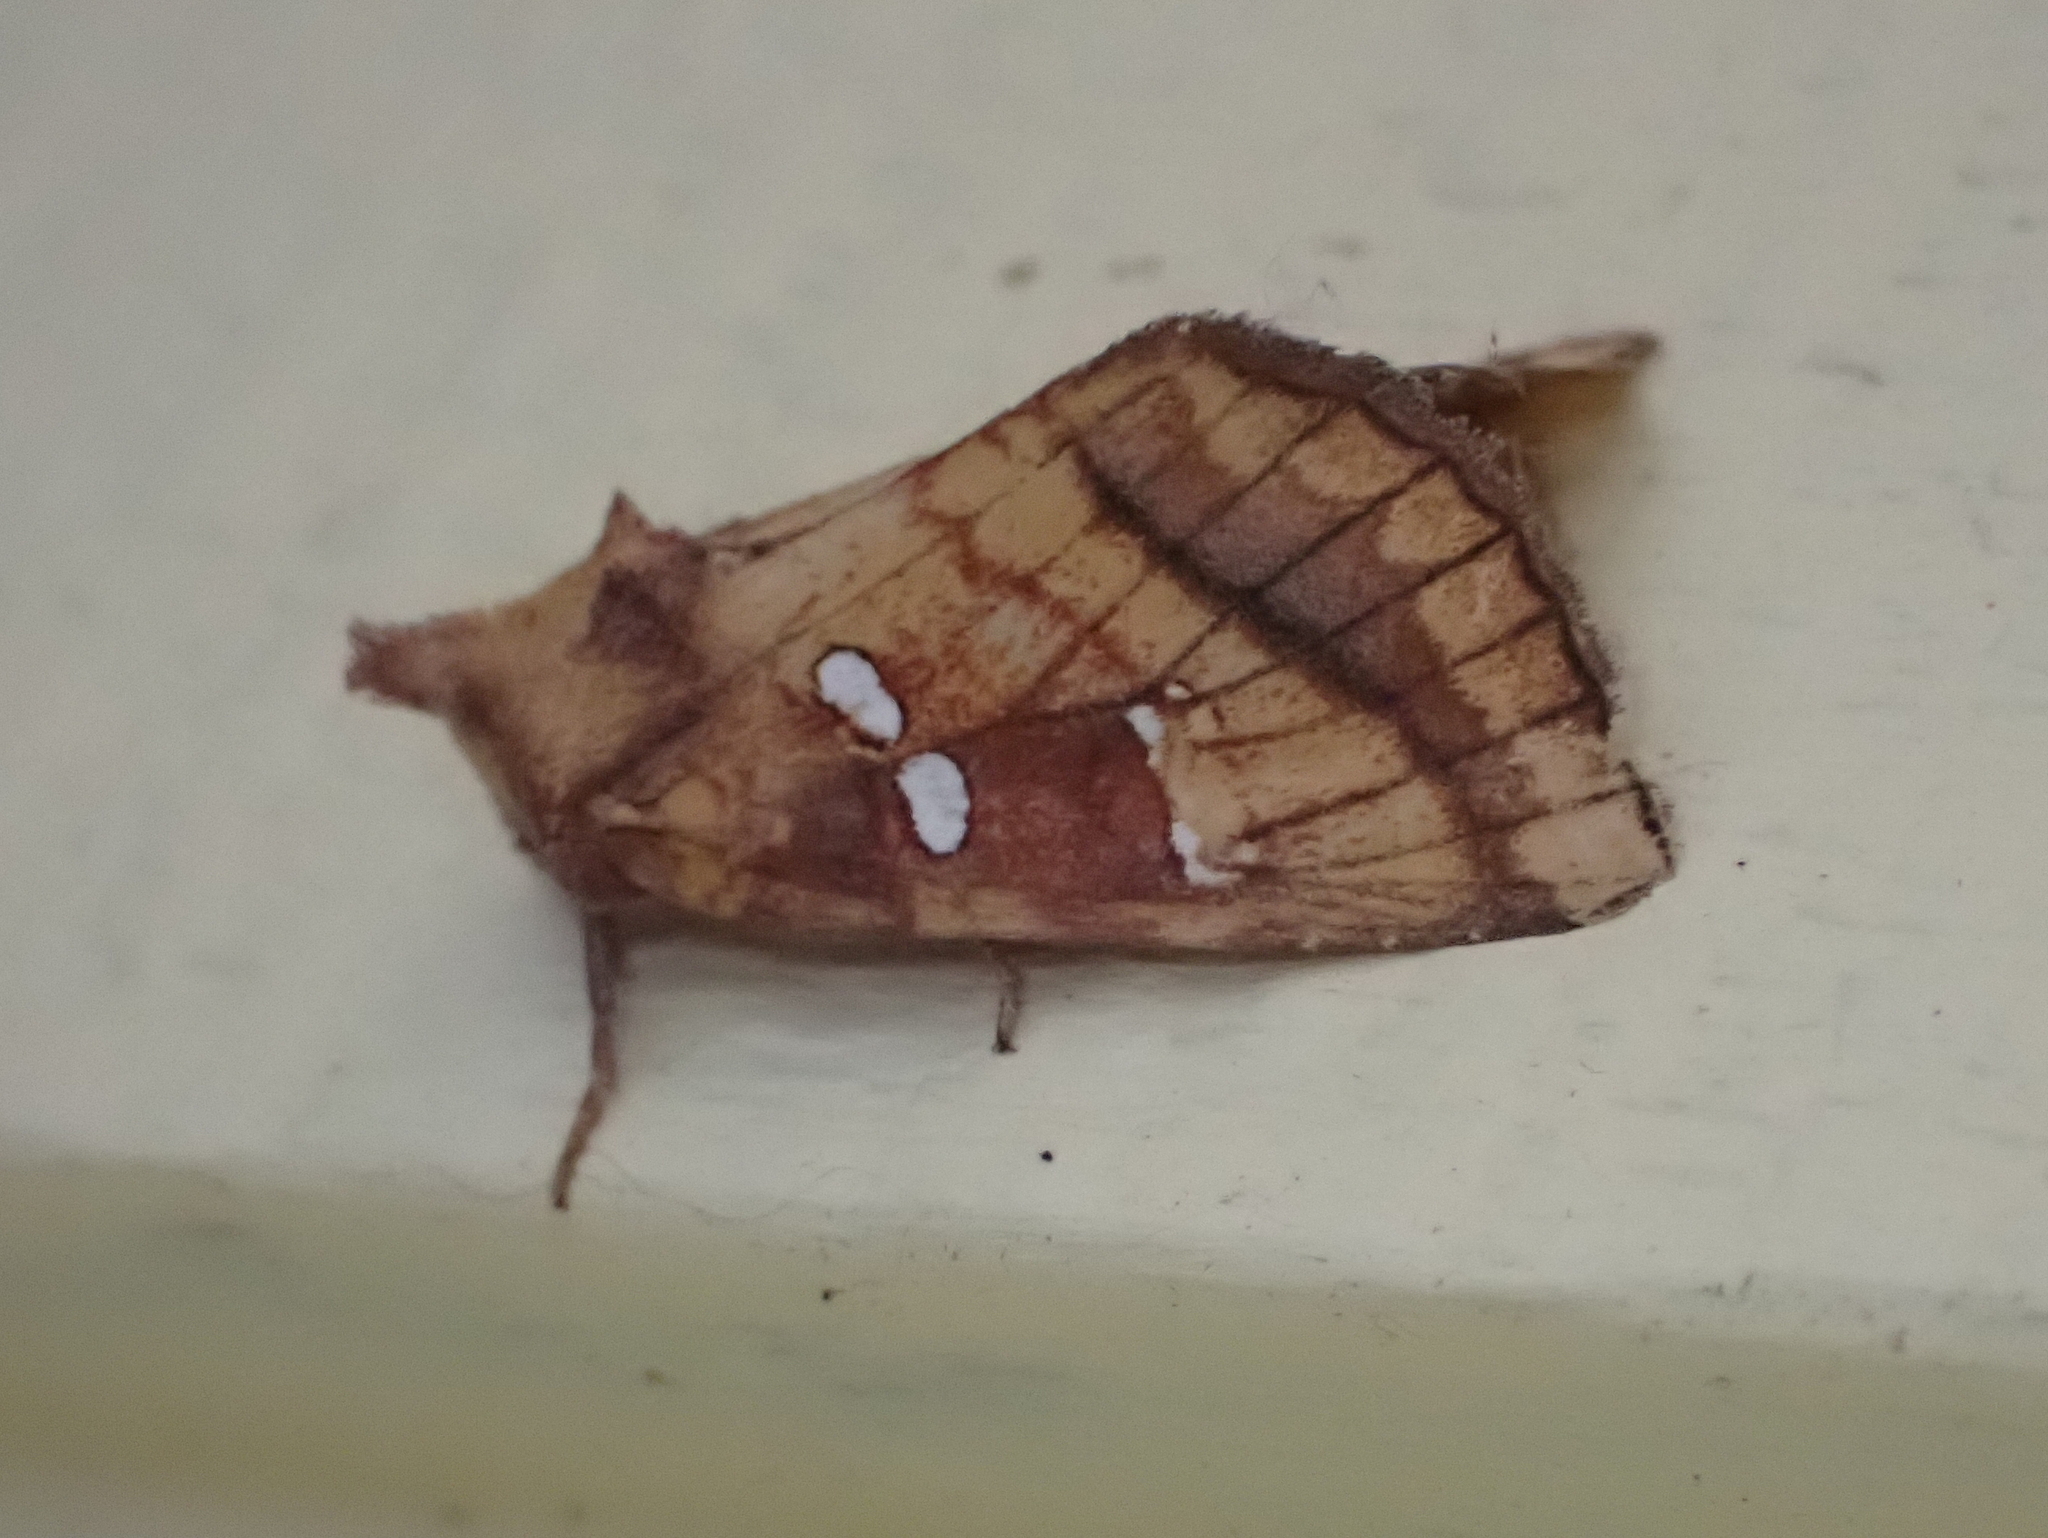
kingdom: Animalia
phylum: Arthropoda
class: Insecta
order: Lepidoptera
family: Noctuidae
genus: Papaipema
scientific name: Papaipema pterisii
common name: Bracken borer moth
